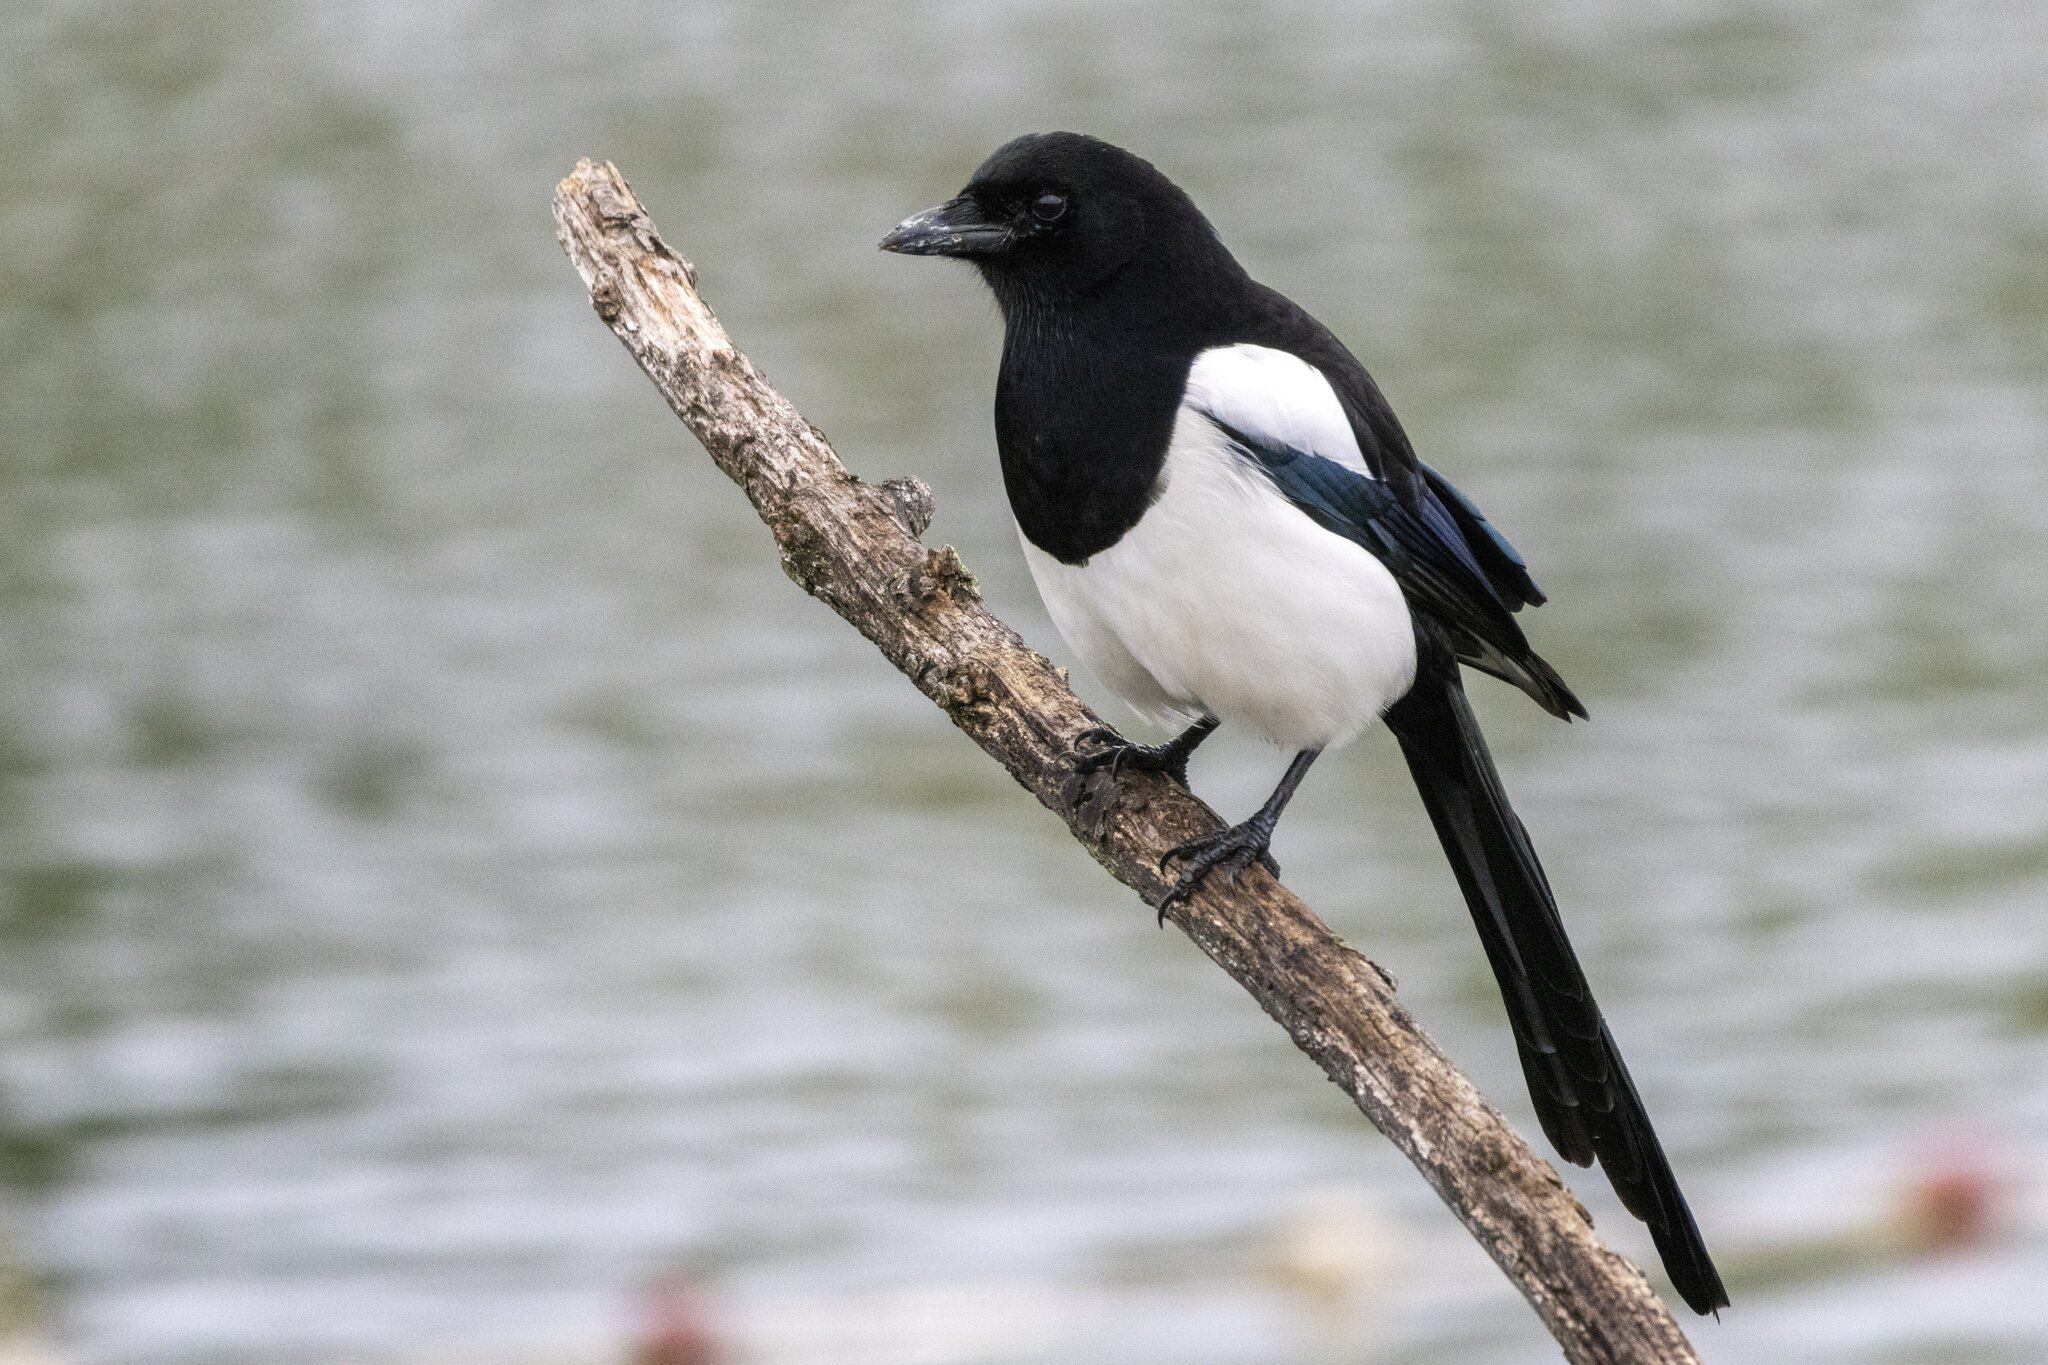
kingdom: Animalia
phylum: Chordata
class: Aves
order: Passeriformes
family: Corvidae
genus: Pica
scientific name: Pica pica
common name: Eurasian magpie
